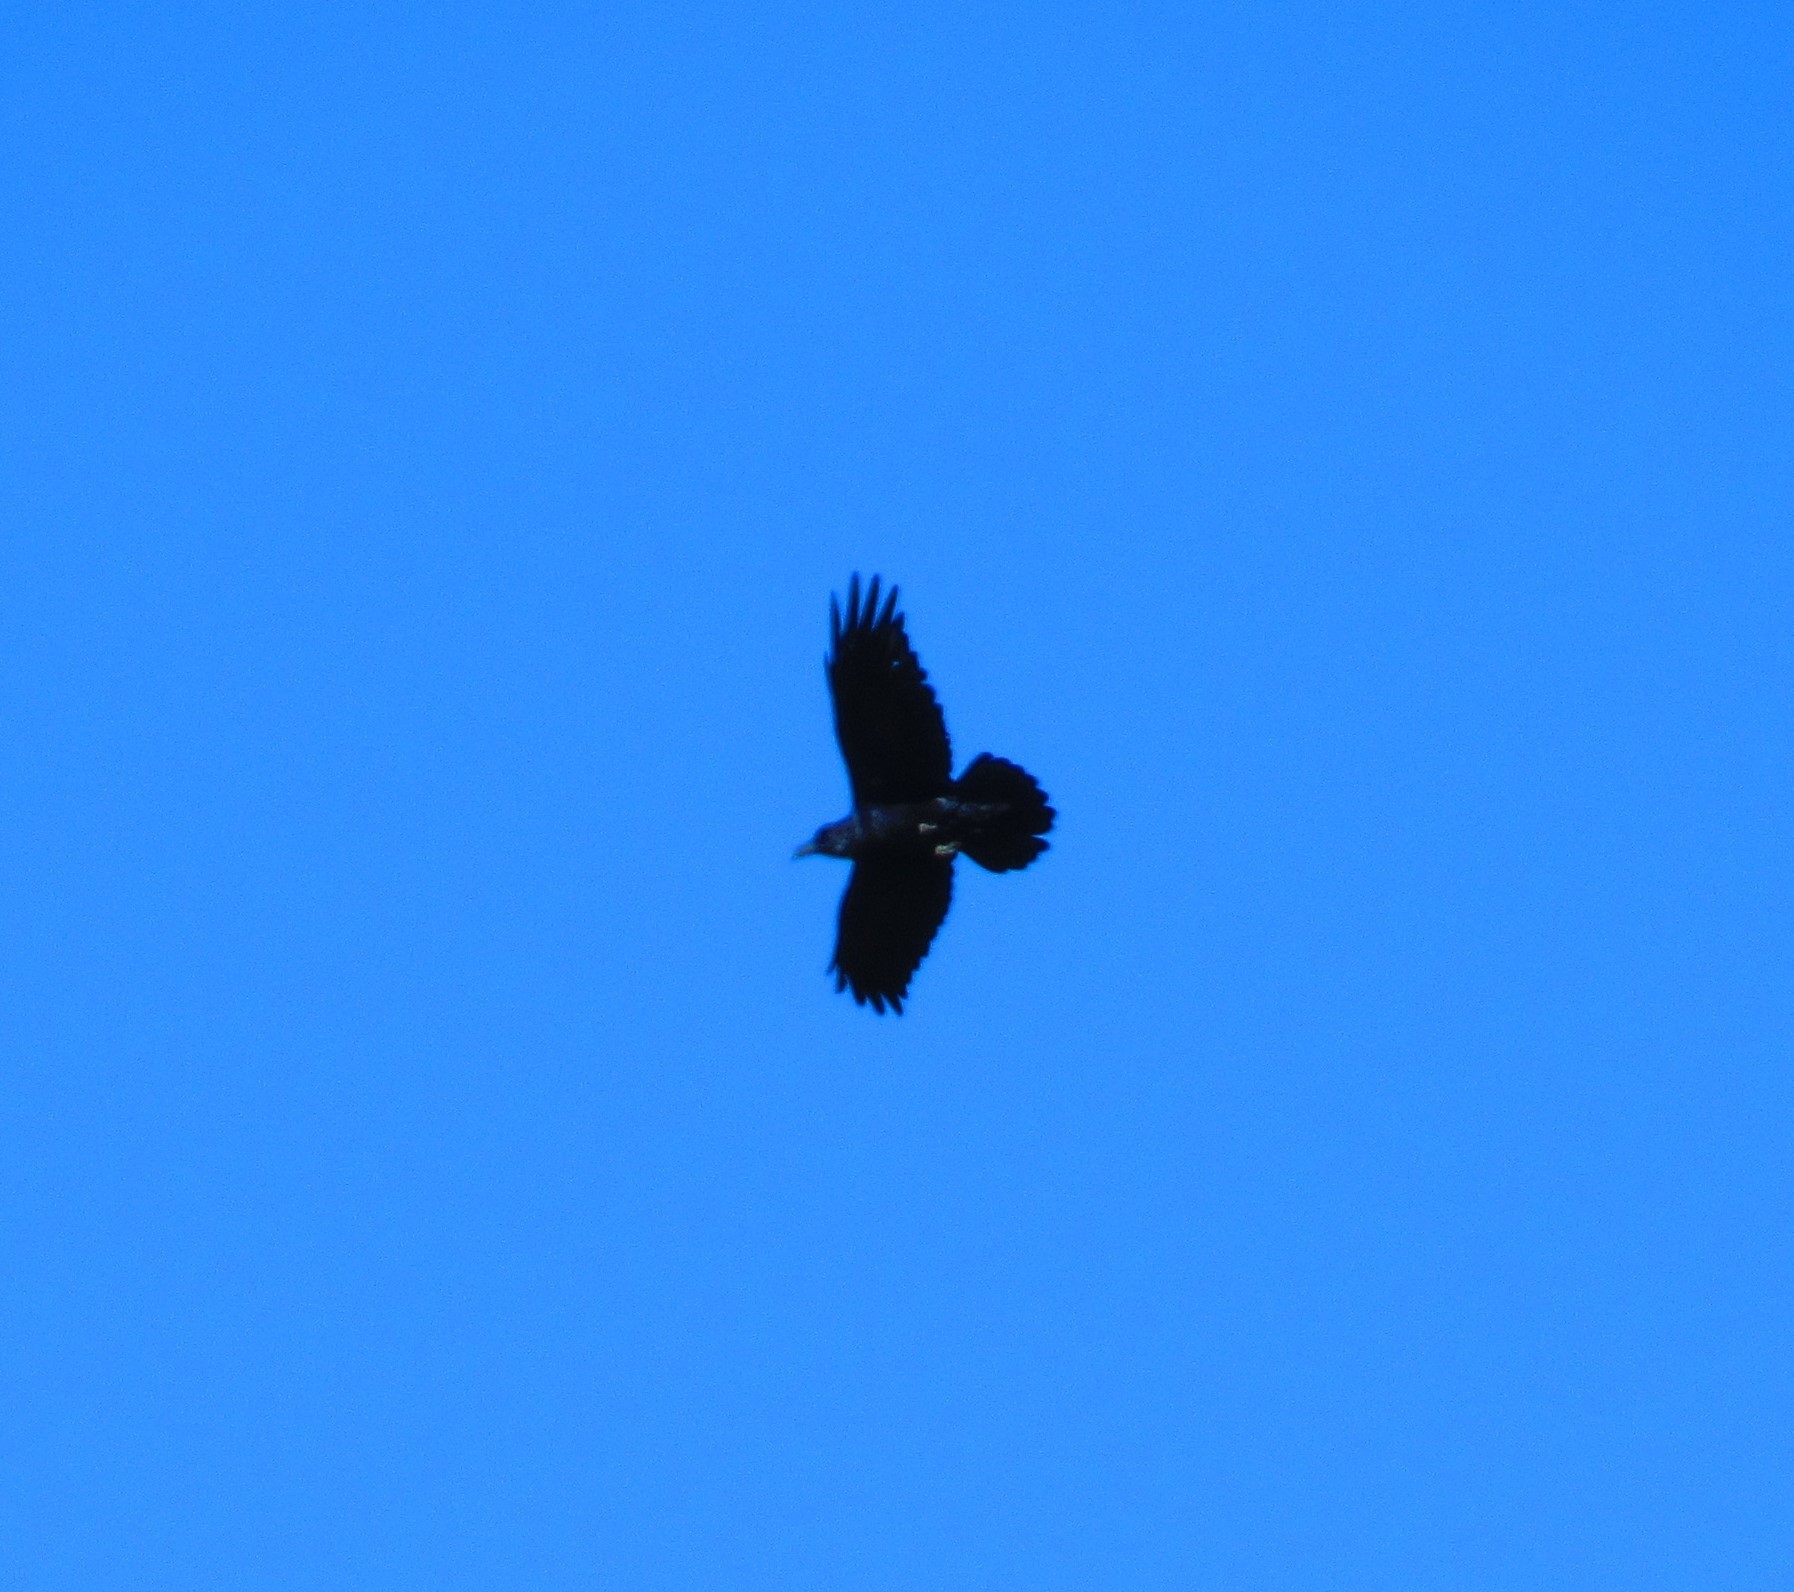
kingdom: Animalia
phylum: Chordata
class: Aves
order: Passeriformes
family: Corvidae
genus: Corvus
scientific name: Corvus corax
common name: Common raven
